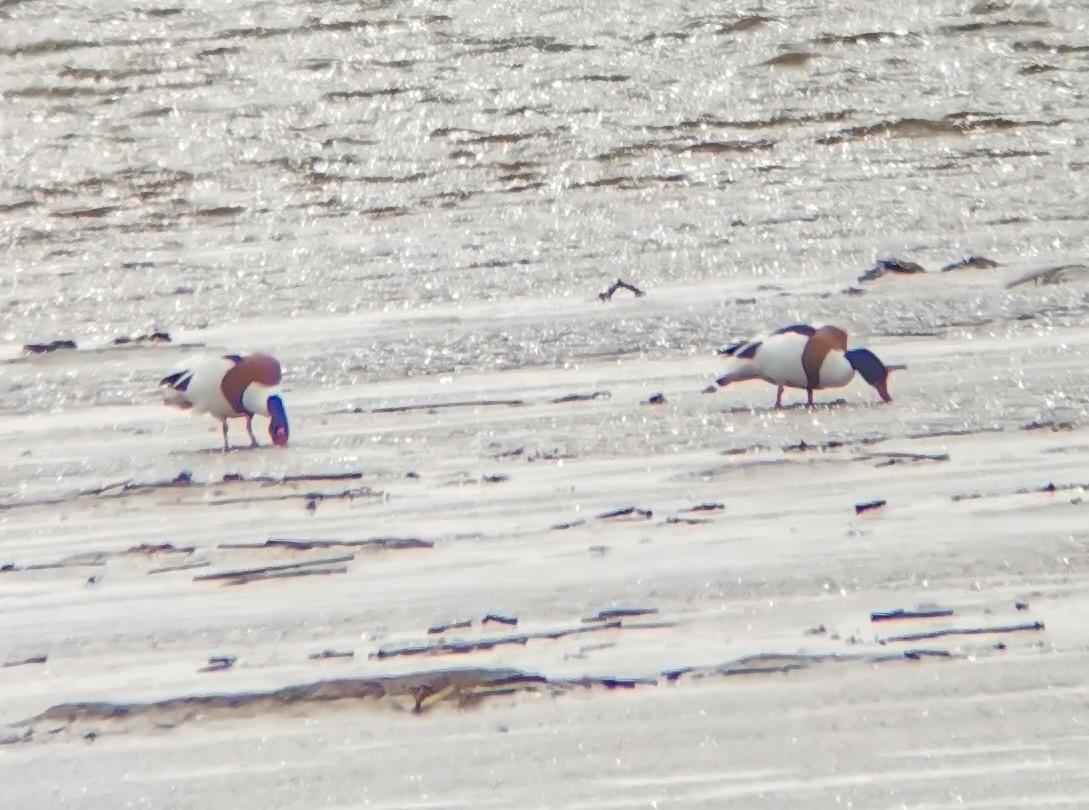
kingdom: Animalia
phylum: Chordata
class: Aves
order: Anseriformes
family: Anatidae
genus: Tadorna
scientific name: Tadorna tadorna
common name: Common shelduck
